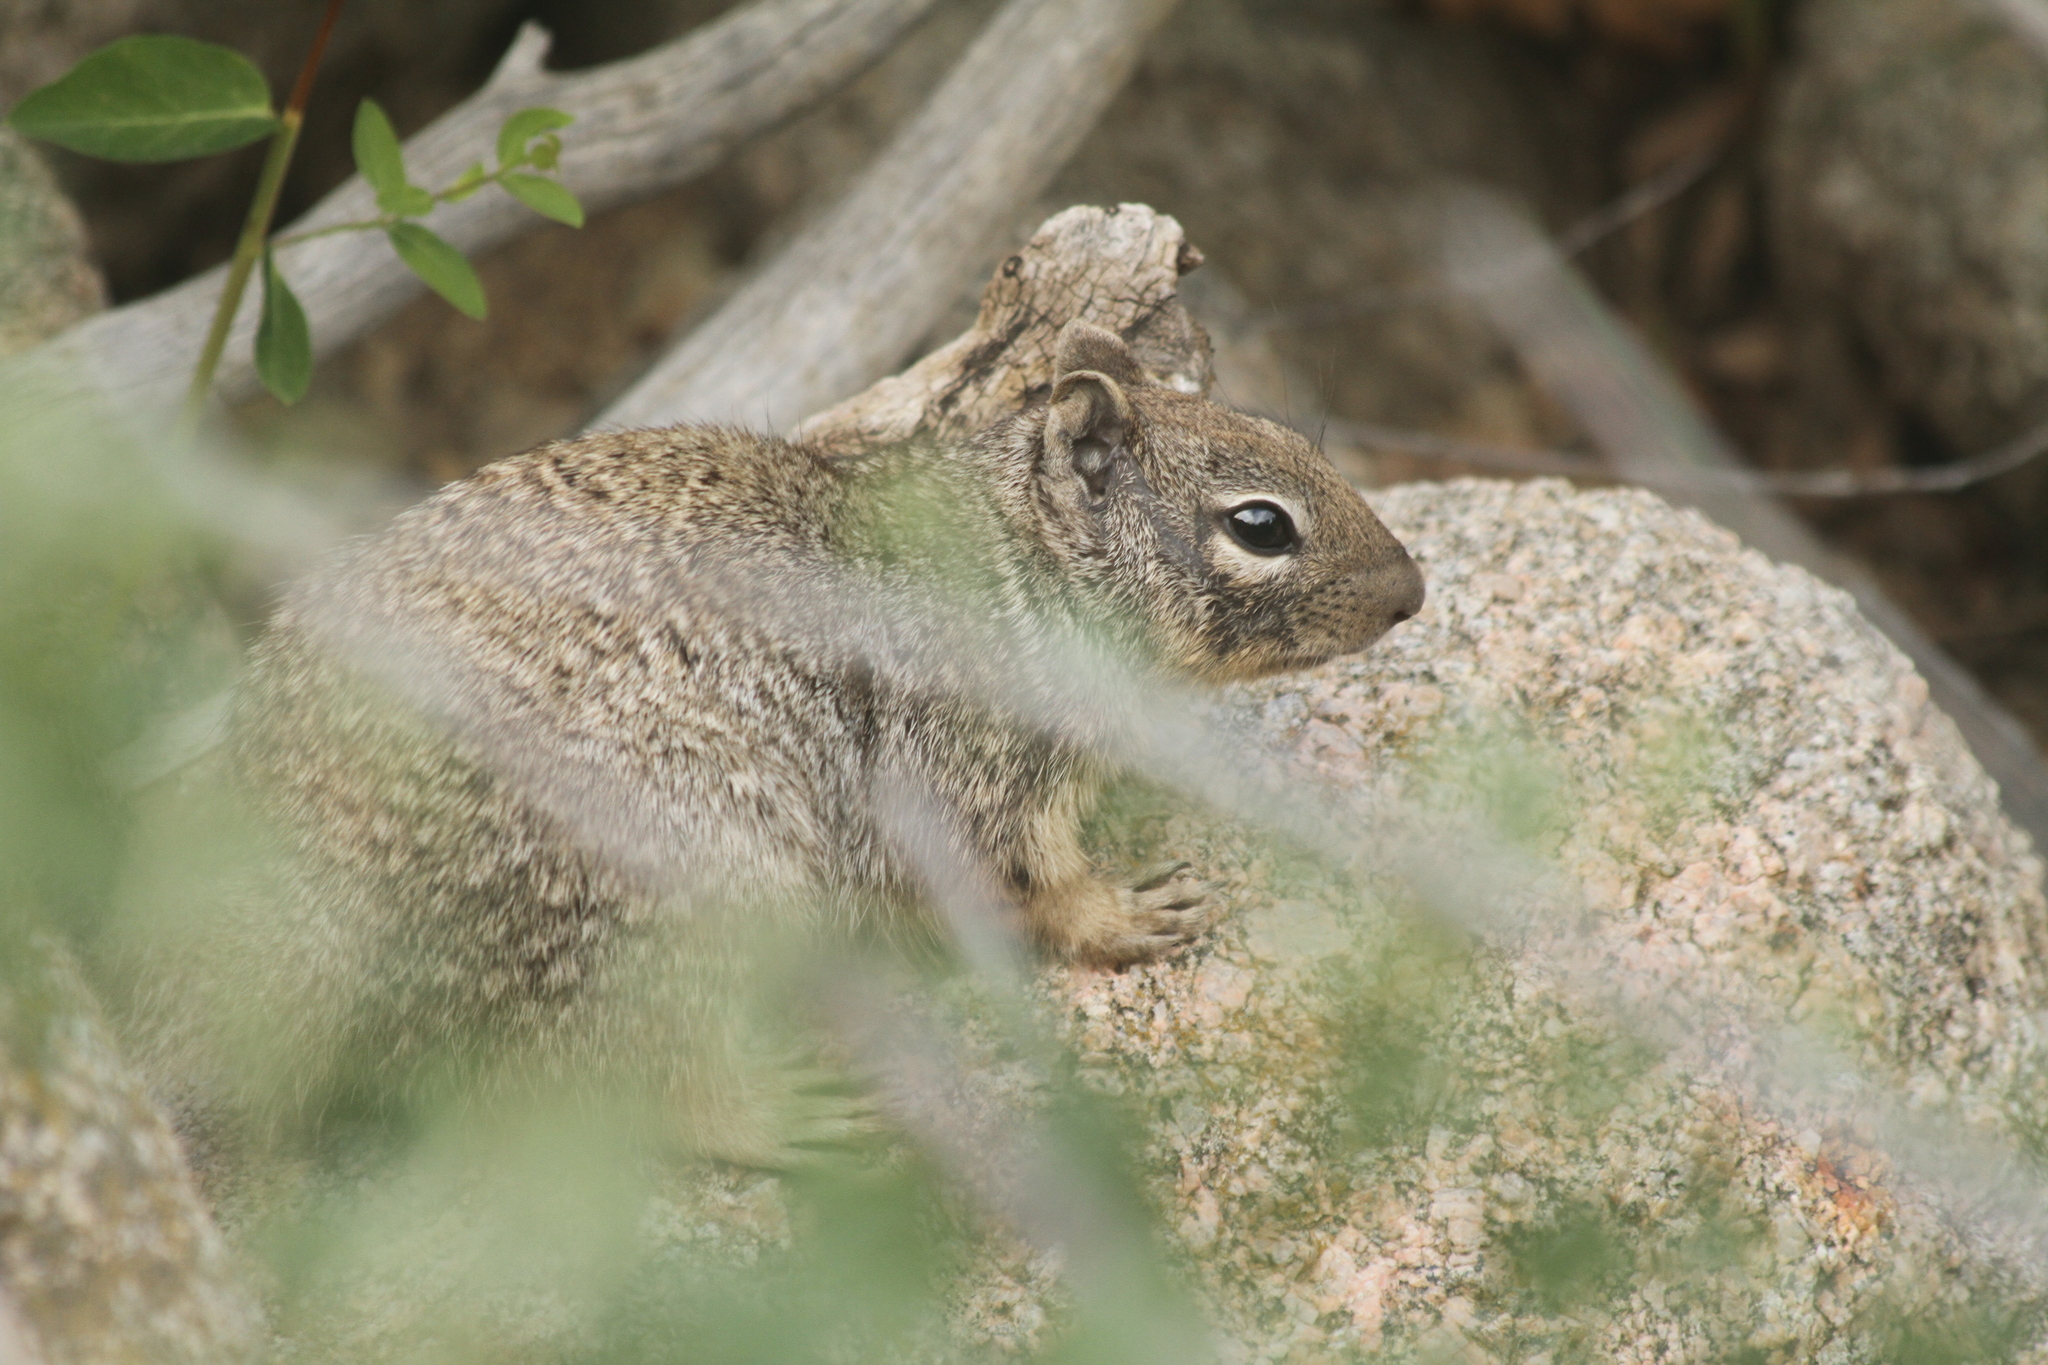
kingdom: Animalia
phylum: Chordata
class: Mammalia
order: Rodentia
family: Sciuridae
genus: Otospermophilus
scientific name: Otospermophilus variegatus
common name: Rock squirrel
